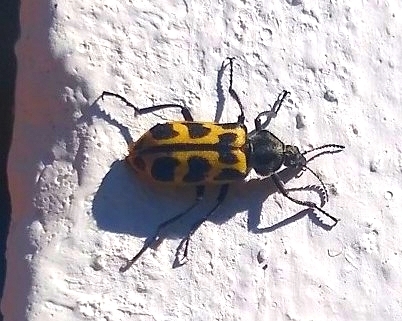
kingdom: Animalia
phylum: Arthropoda
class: Insecta
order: Coleoptera
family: Melyridae
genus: Astylus
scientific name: Astylus atromaculatus
